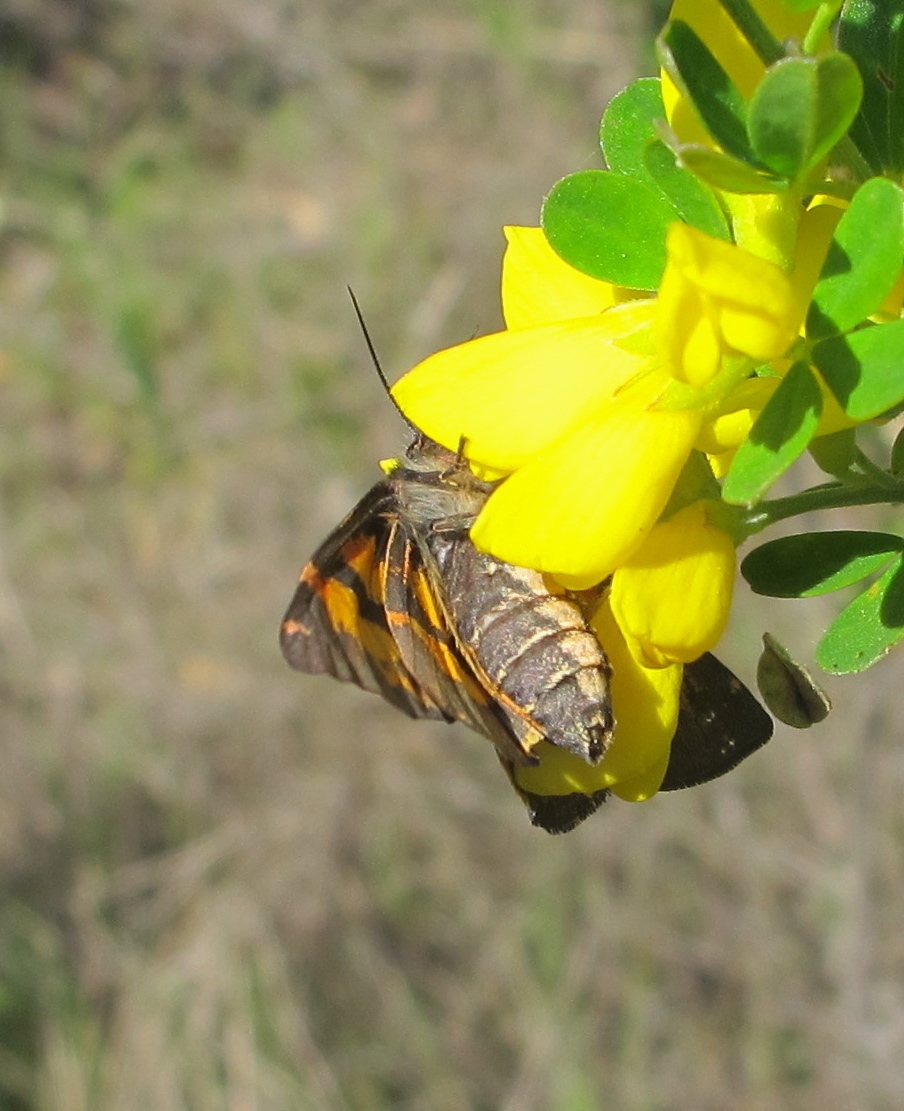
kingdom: Animalia
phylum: Arthropoda
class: Insecta
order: Lepidoptera
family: Erebidae
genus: Leptarctia
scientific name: Leptarctia californiae
